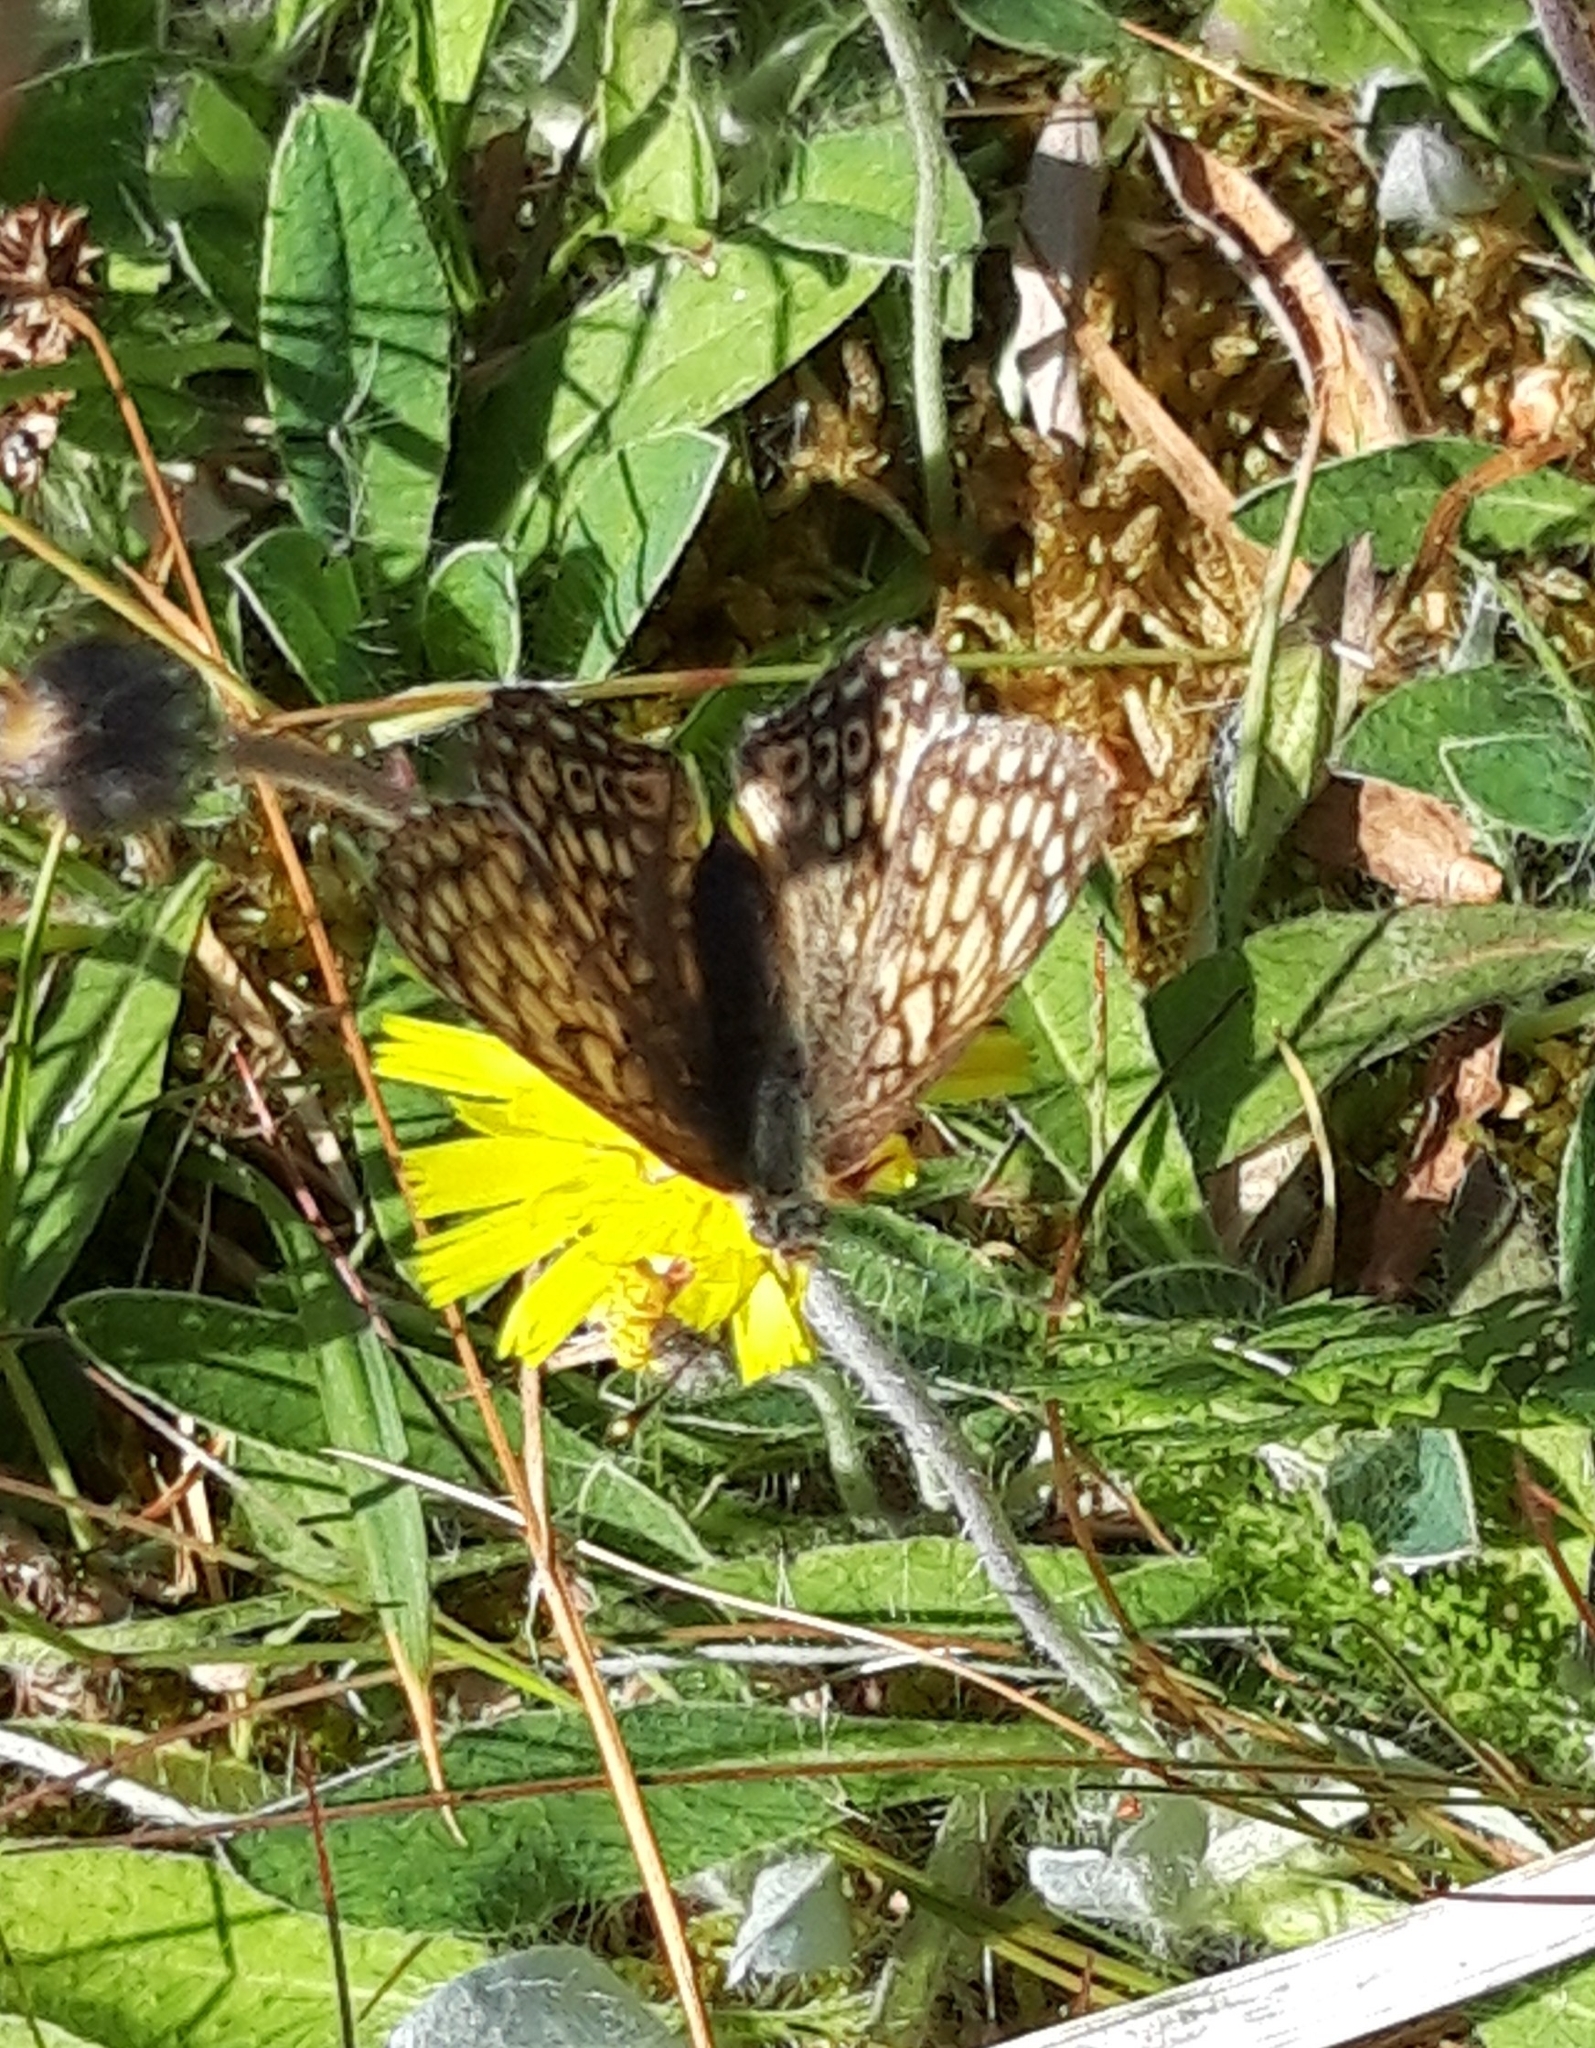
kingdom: Animalia
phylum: Arthropoda
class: Insecta
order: Lepidoptera
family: Nymphalidae
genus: Melitaea
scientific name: Melitaea cinxia
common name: Glanville fritillary
